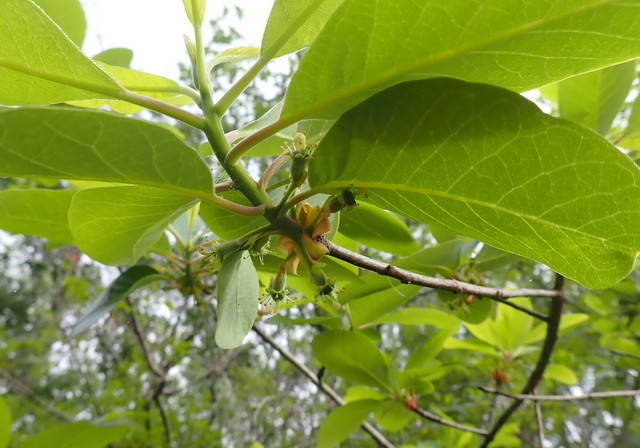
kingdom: Plantae
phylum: Tracheophyta
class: Magnoliopsida
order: Cornales
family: Nyssaceae
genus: Nyssa
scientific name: Nyssa ogeche
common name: Ogeechee tupelo
